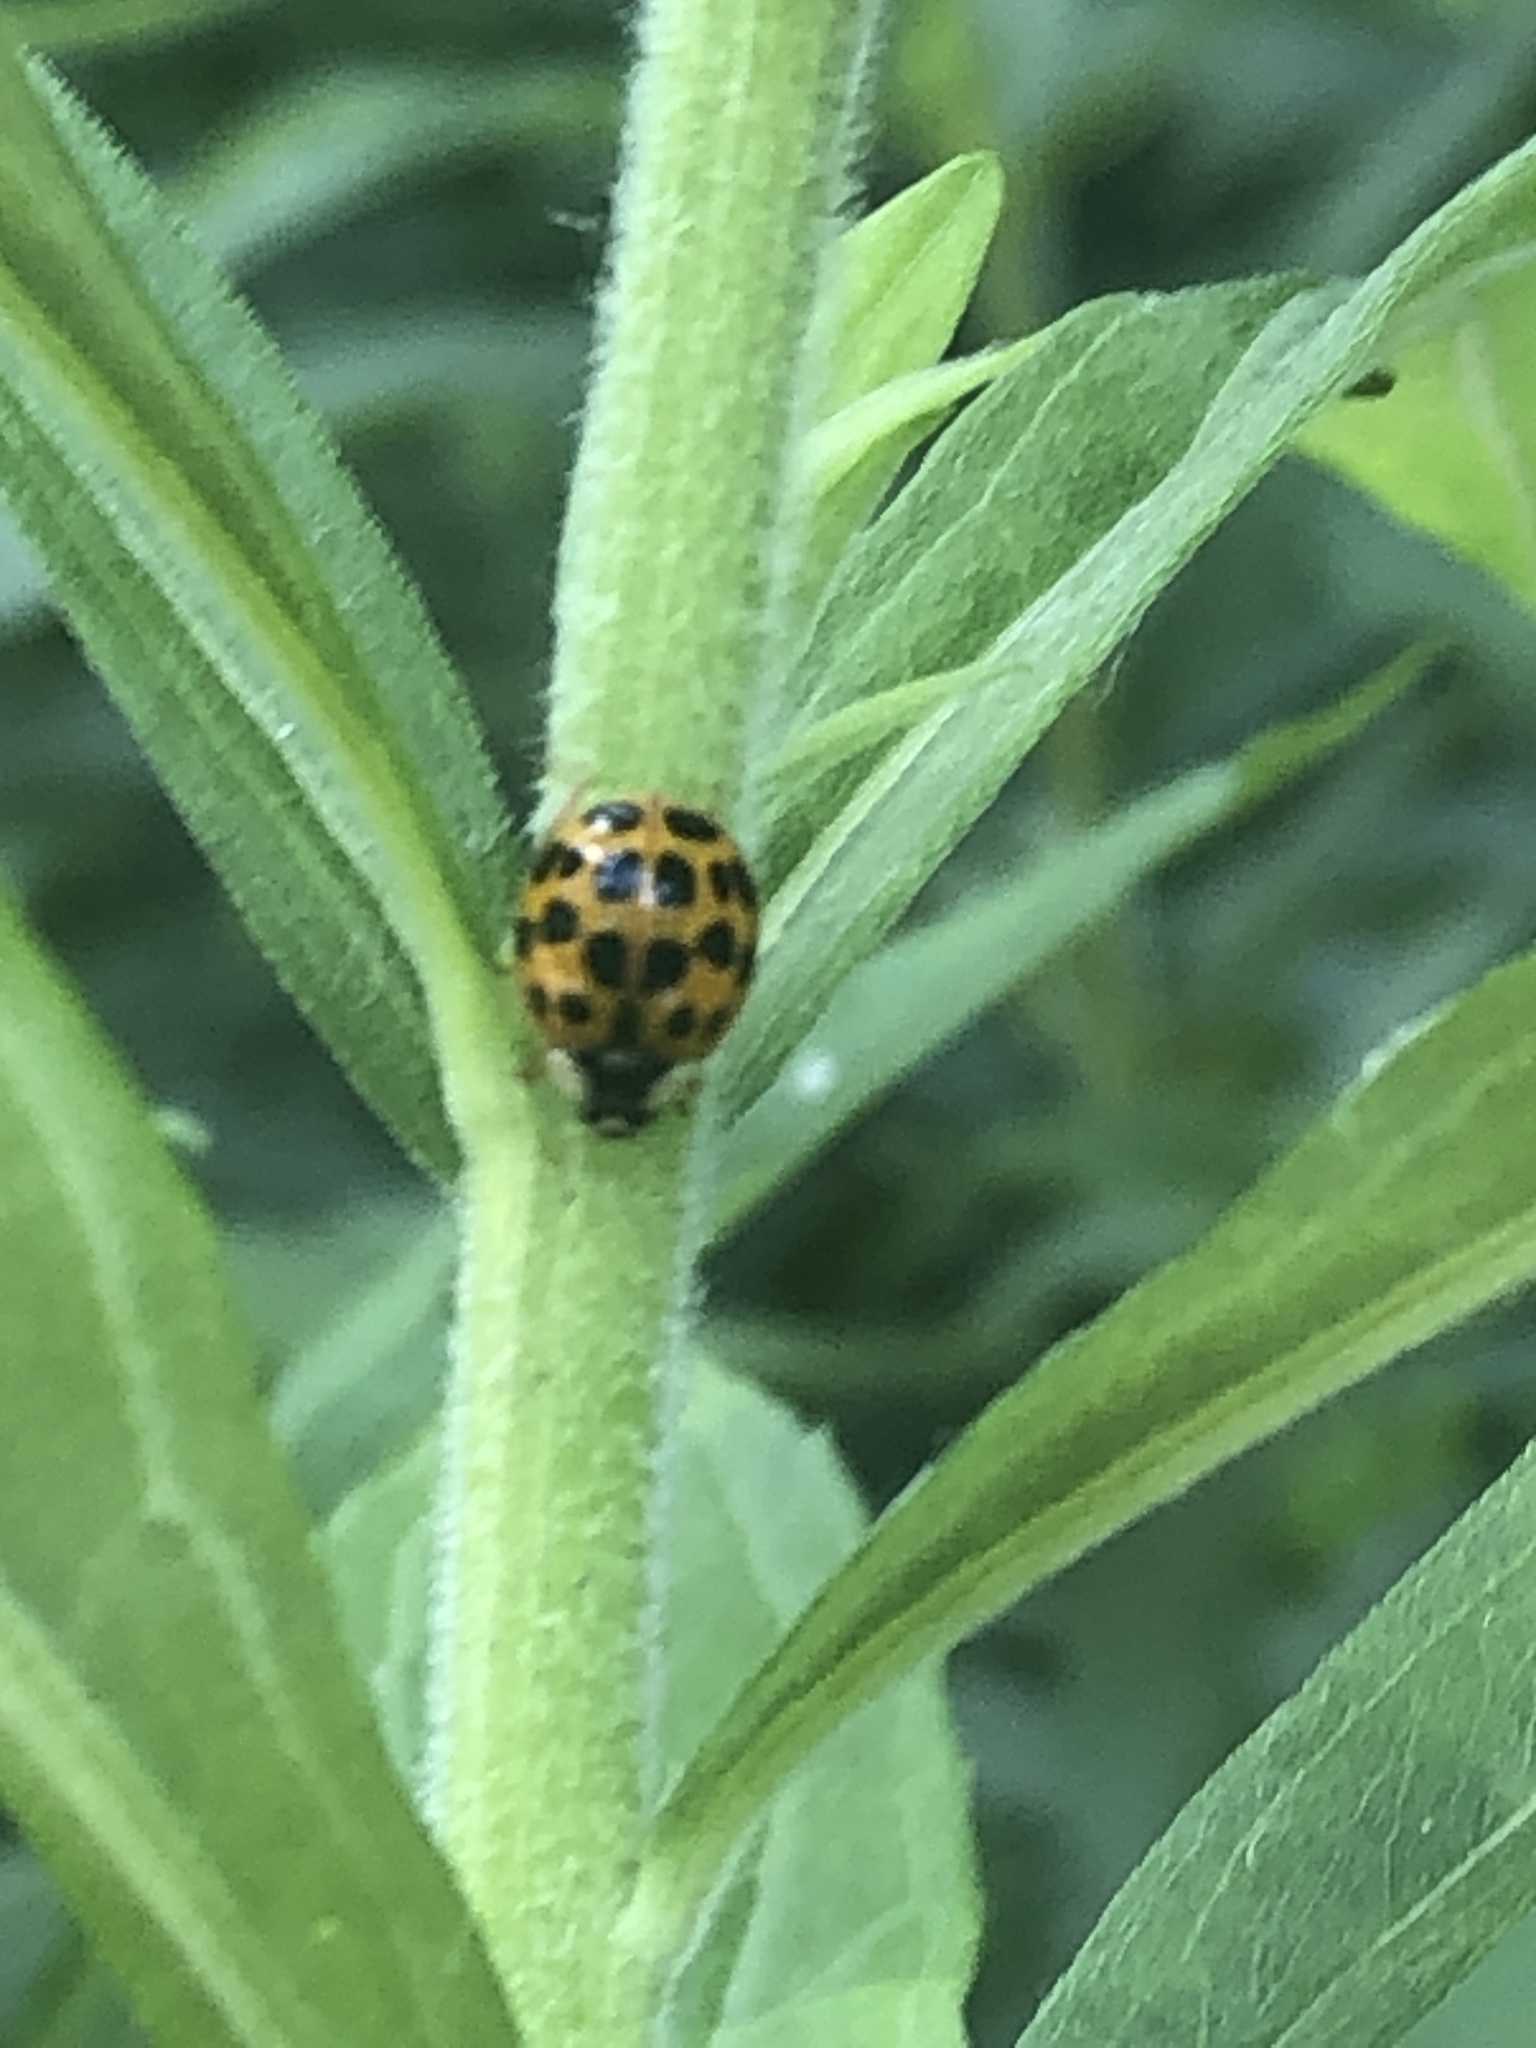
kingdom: Animalia
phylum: Arthropoda
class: Insecta
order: Coleoptera
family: Coccinellidae
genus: Harmonia
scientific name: Harmonia axyridis
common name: Harlequin ladybird
